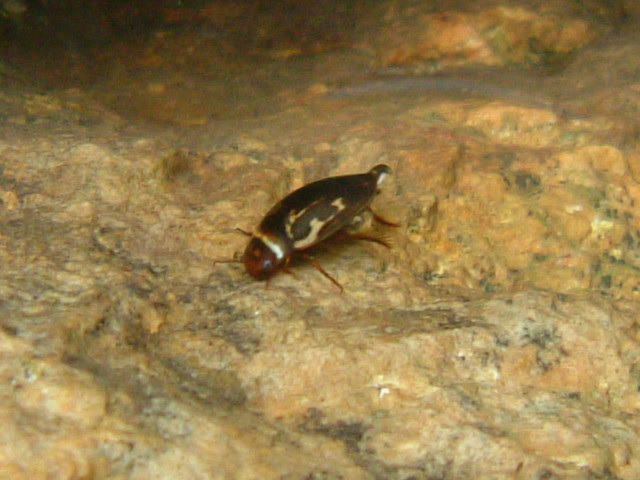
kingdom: Animalia
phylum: Arthropoda
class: Insecta
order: Coleoptera
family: Dytiscidae
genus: Platambus
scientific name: Platambus maculatus
